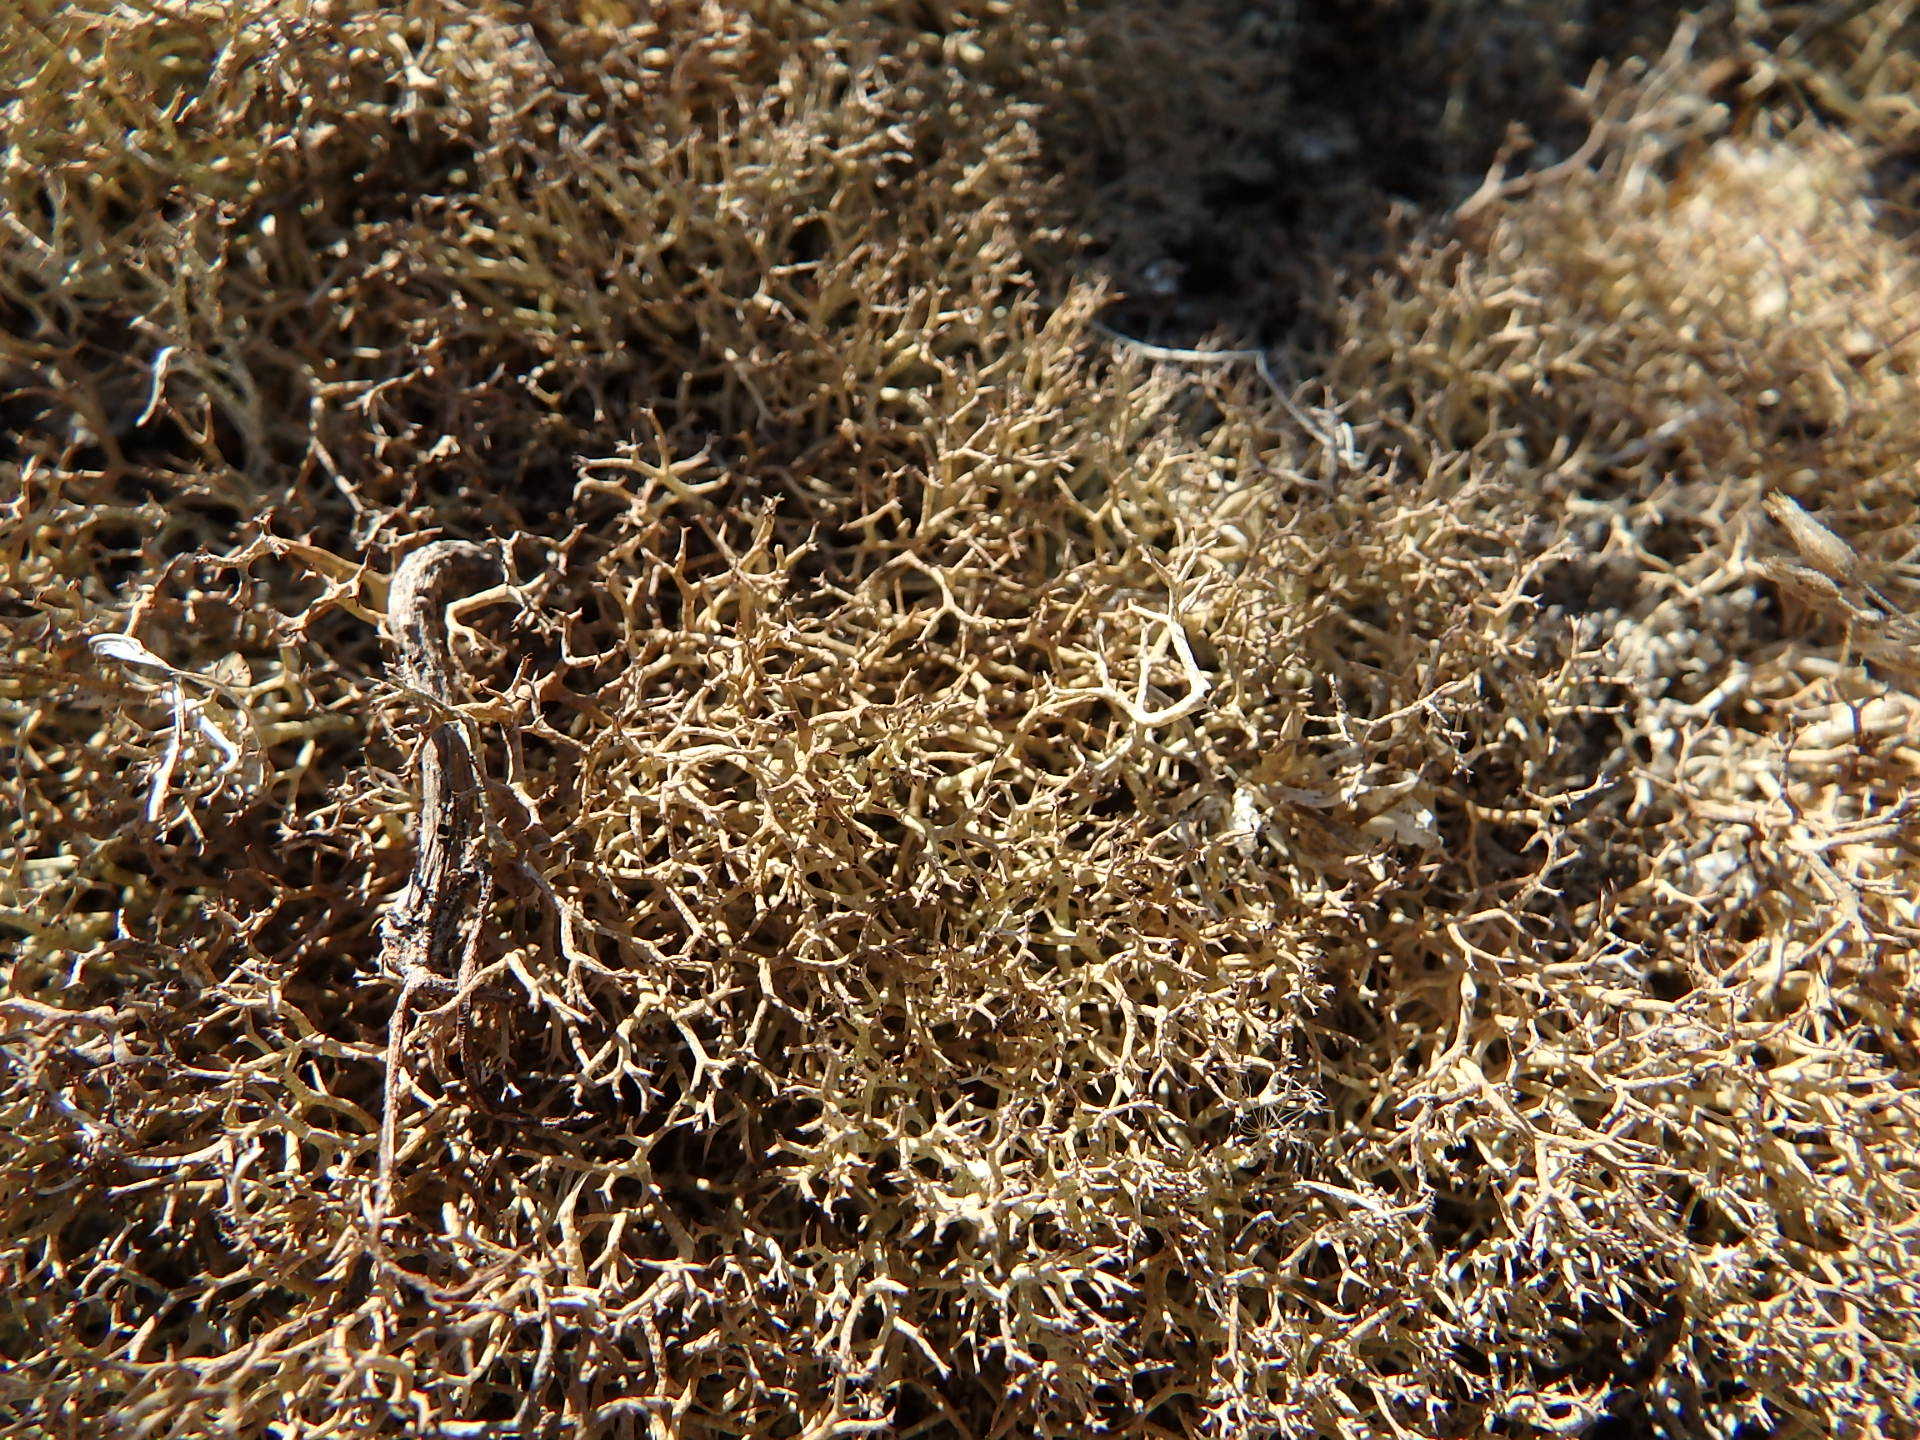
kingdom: Fungi
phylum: Ascomycota
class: Lecanoromycetes
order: Lecanorales
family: Cladoniaceae
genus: Cladonia
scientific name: Cladonia rangiformis
